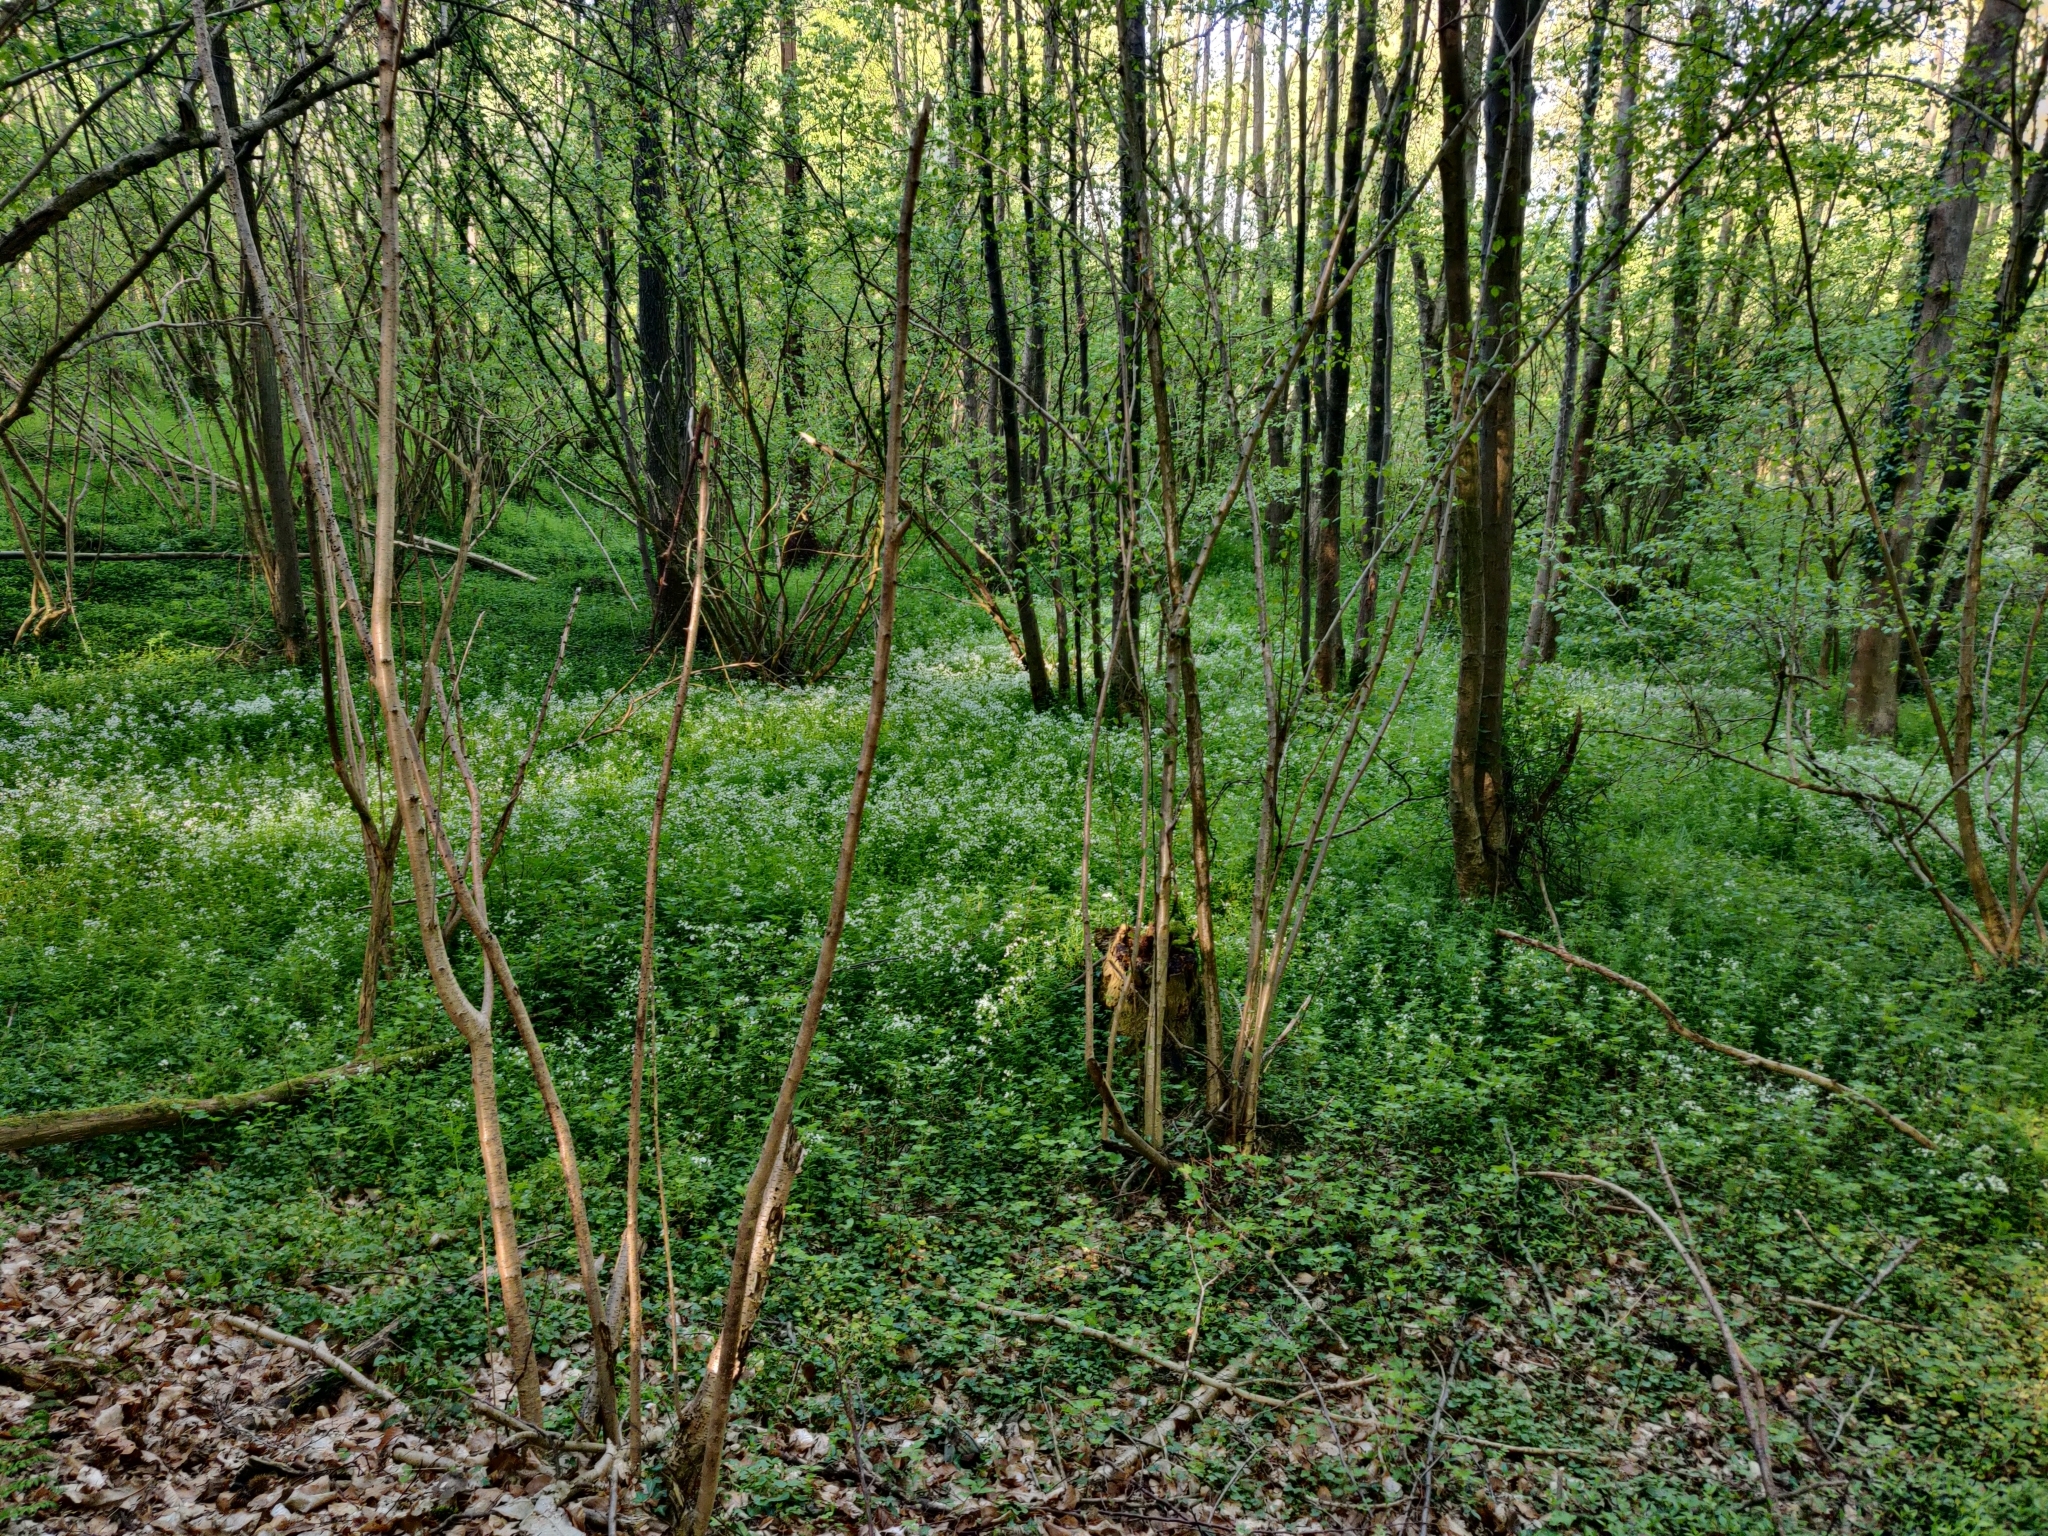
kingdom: Plantae
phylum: Tracheophyta
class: Magnoliopsida
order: Brassicales
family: Brassicaceae
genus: Cardamine
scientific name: Cardamine amara
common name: Large bitter-cress
